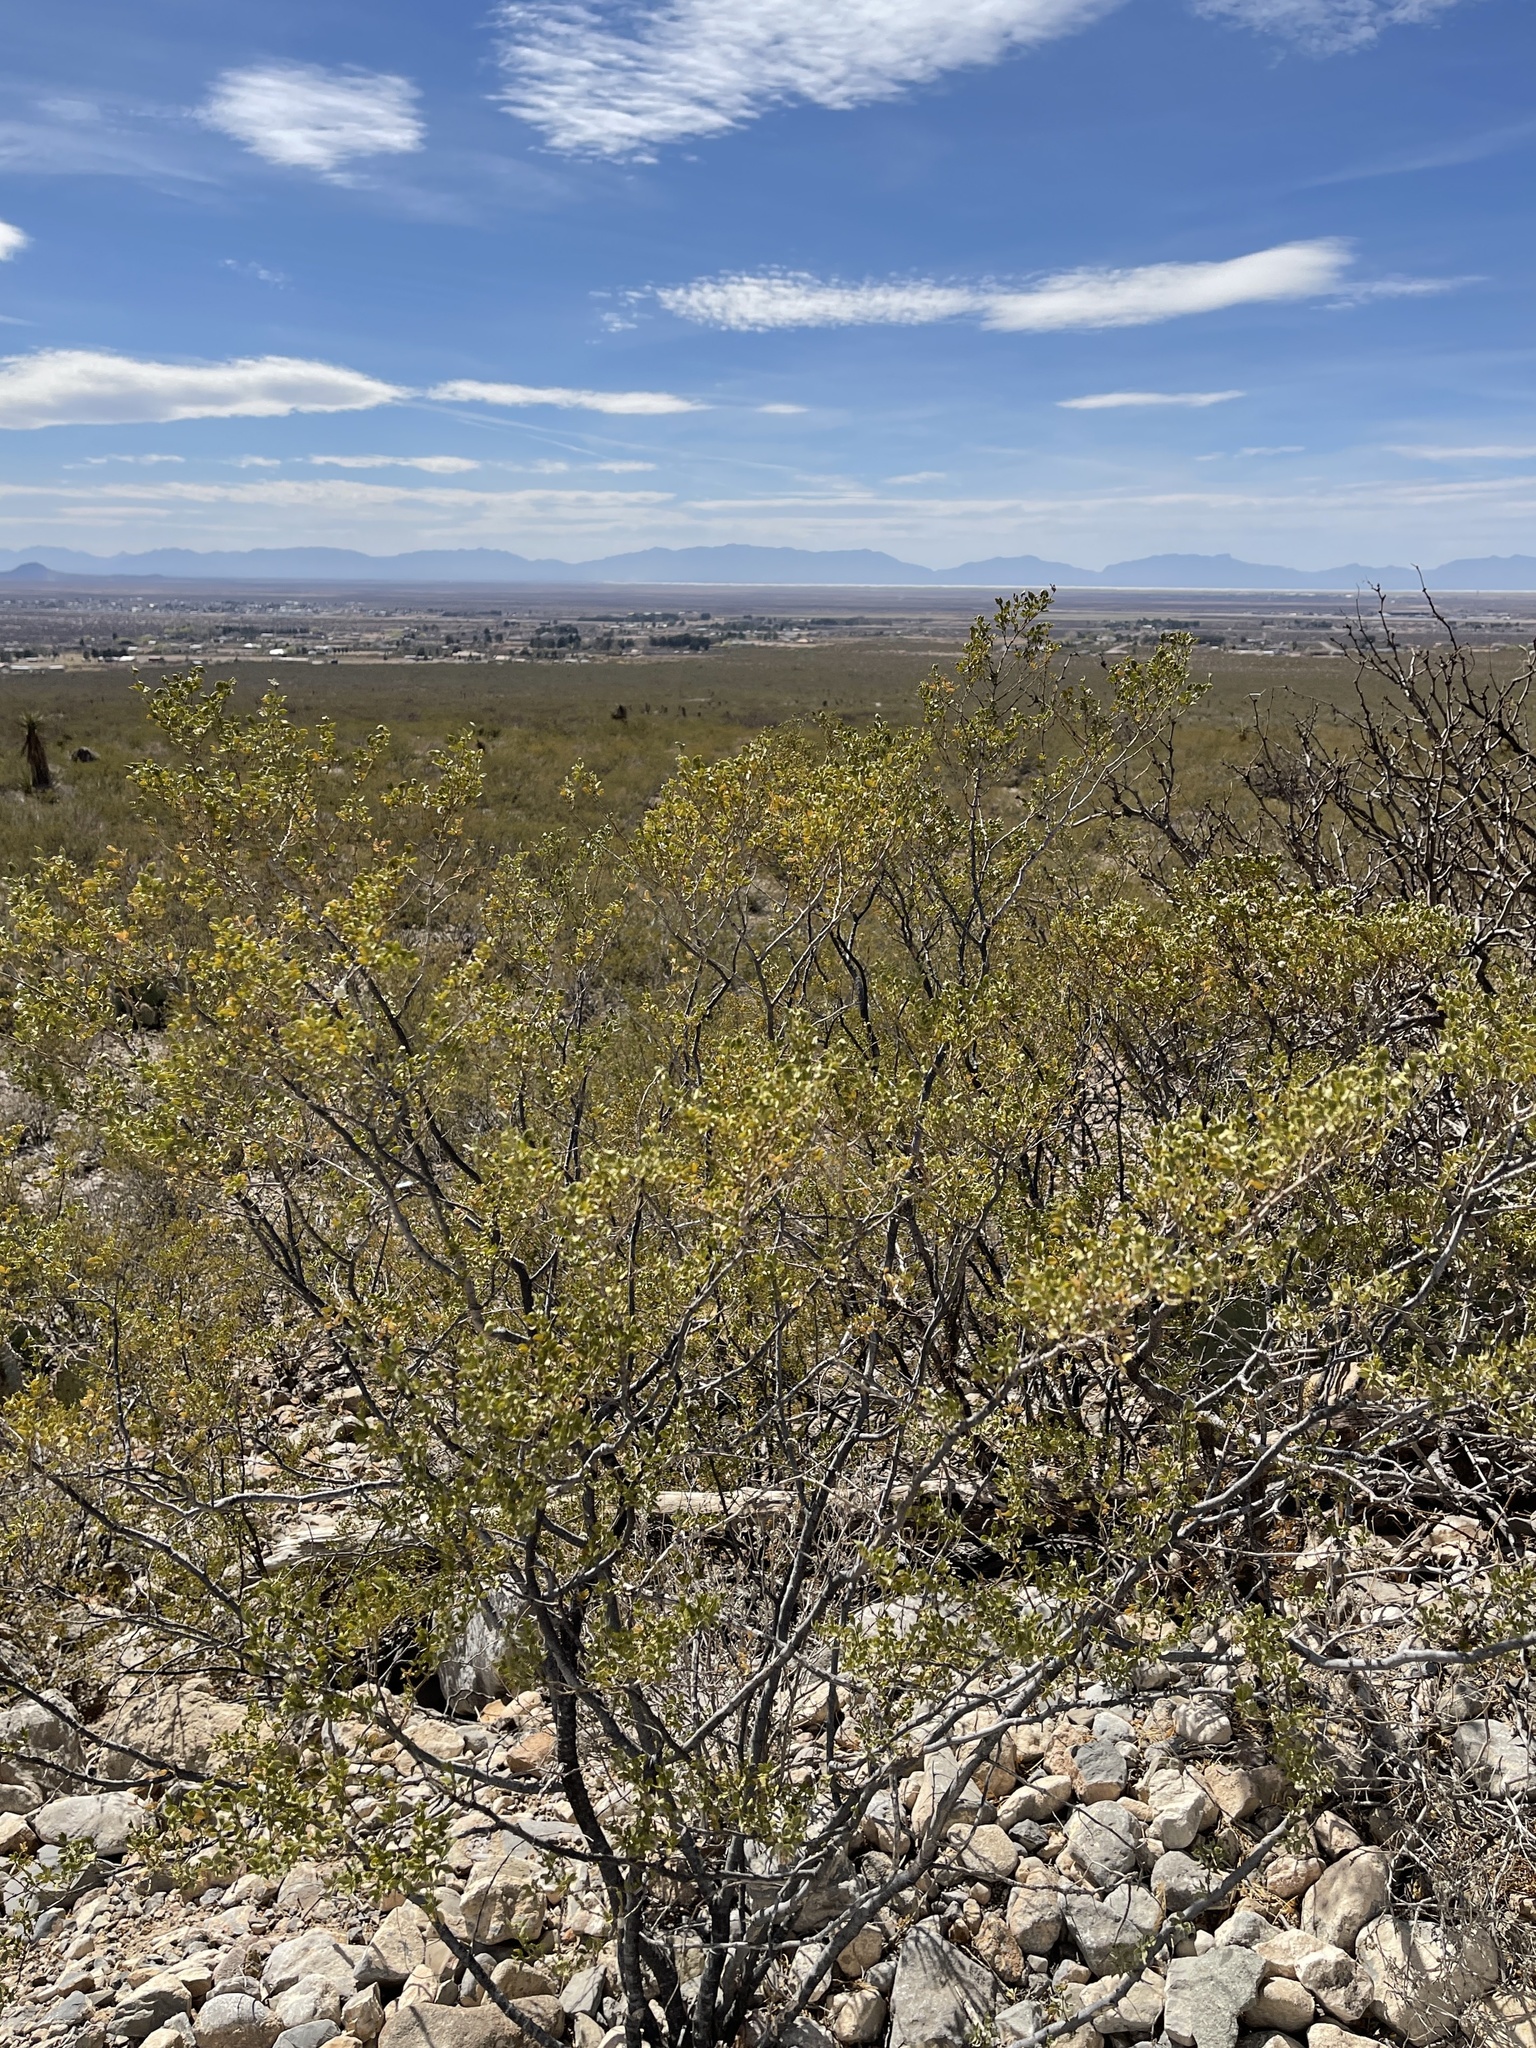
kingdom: Plantae
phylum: Tracheophyta
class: Magnoliopsida
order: Zygophyllales
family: Zygophyllaceae
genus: Larrea
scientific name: Larrea tridentata
